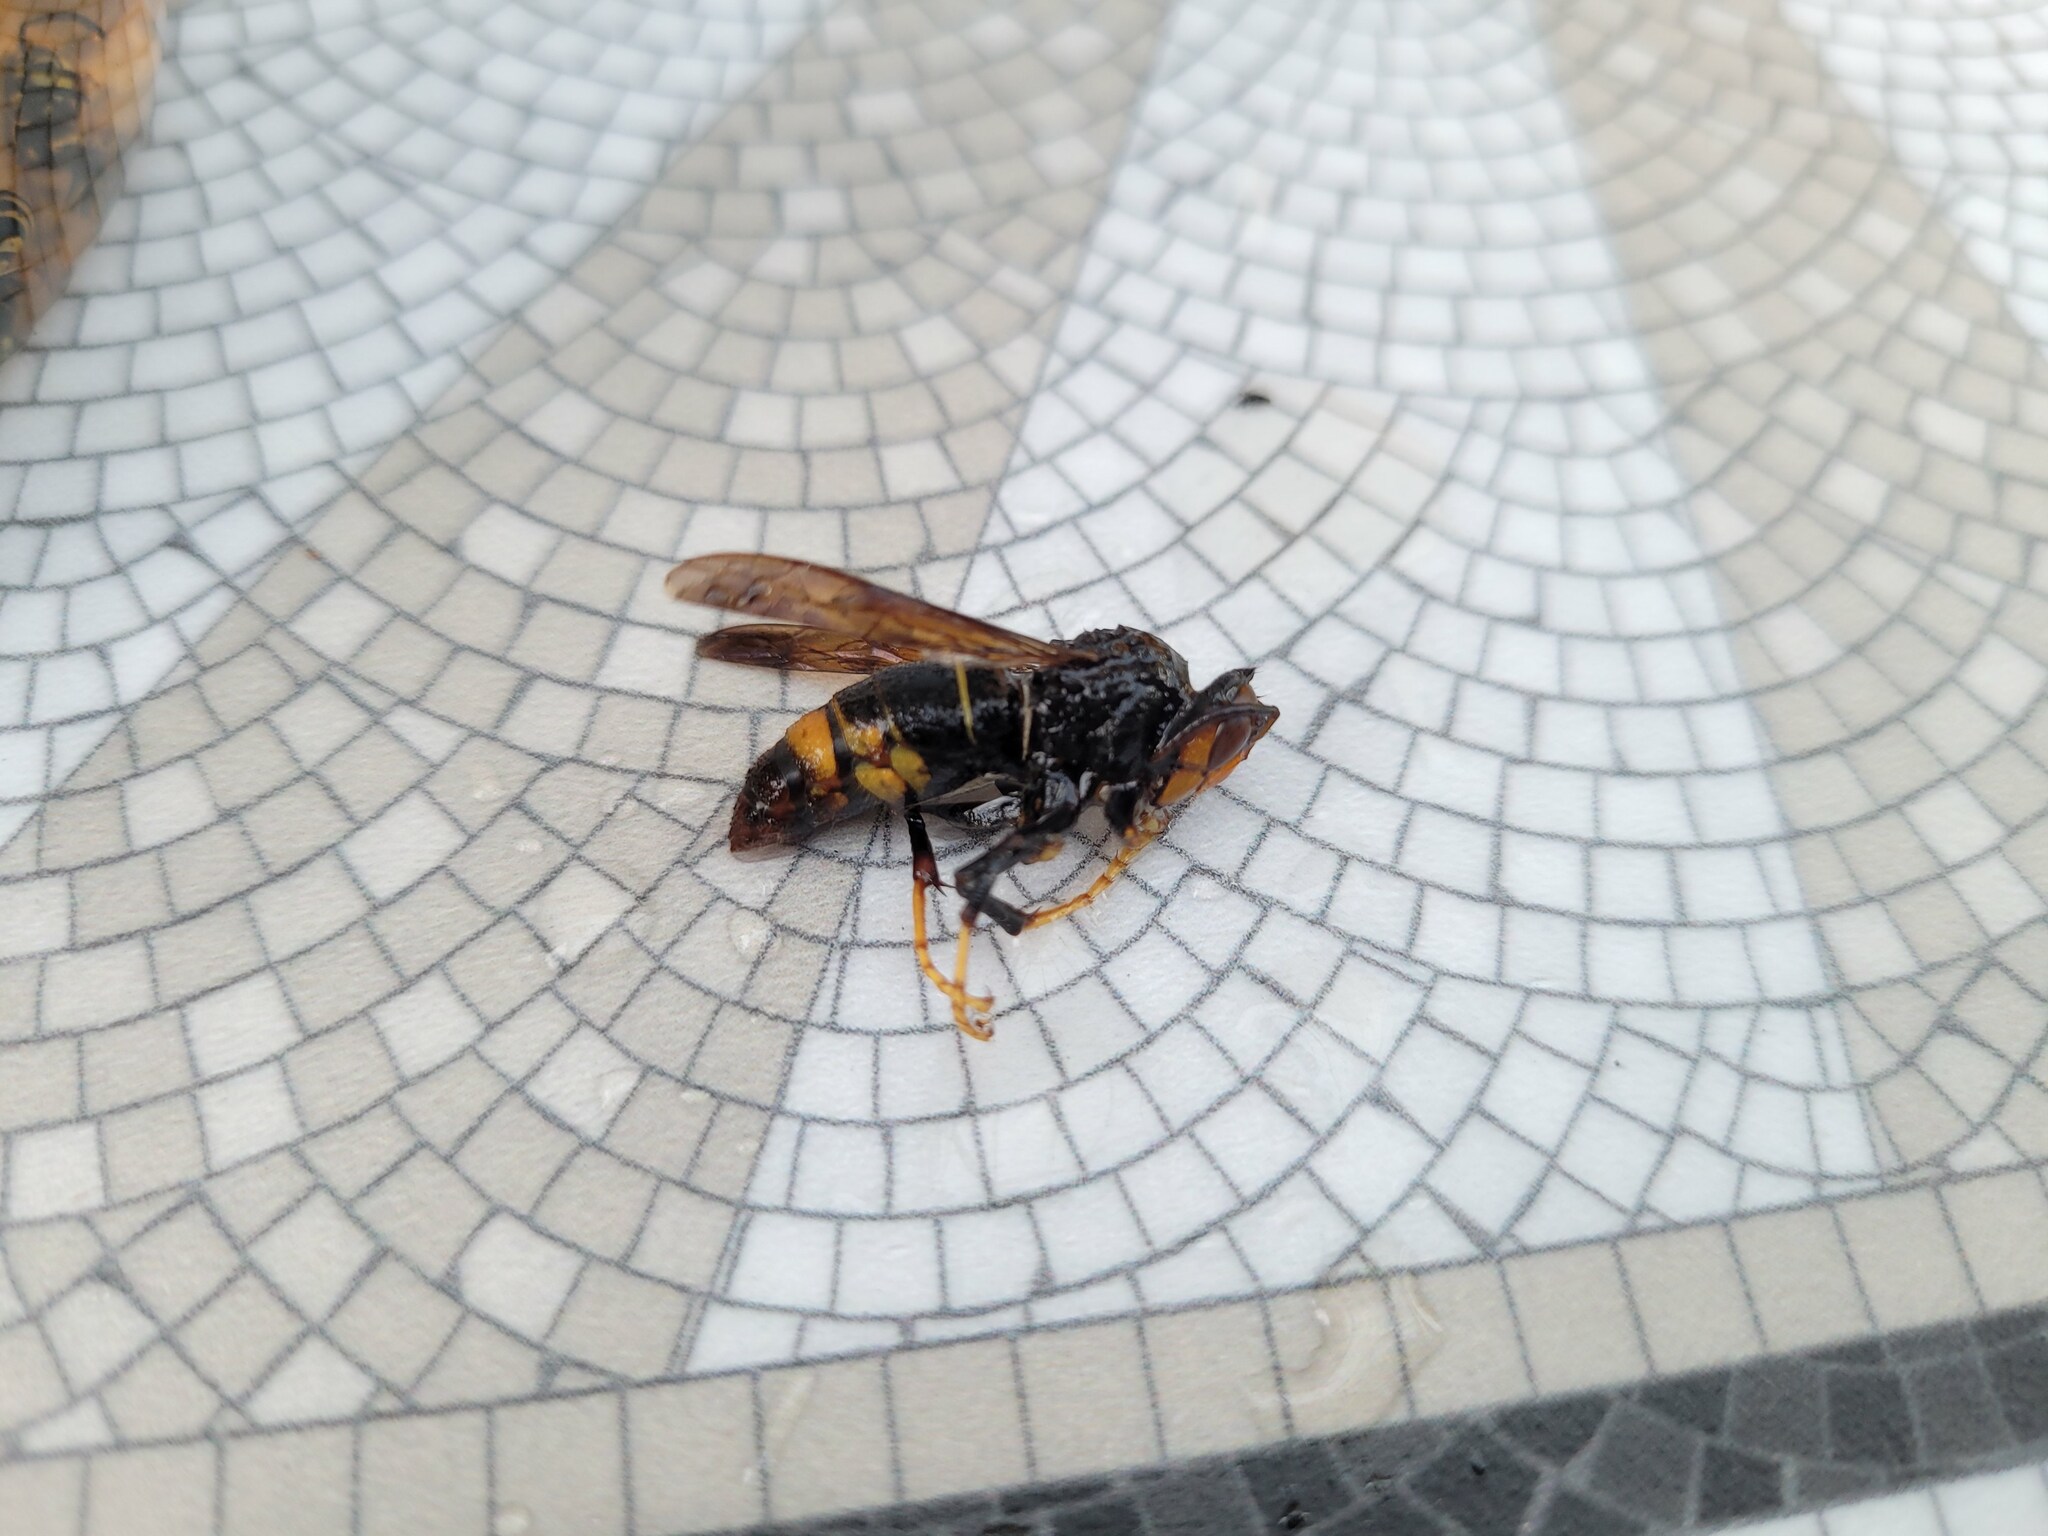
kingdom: Animalia
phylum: Arthropoda
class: Insecta
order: Hymenoptera
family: Vespidae
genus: Vespa
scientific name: Vespa velutina
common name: Asian hornet
